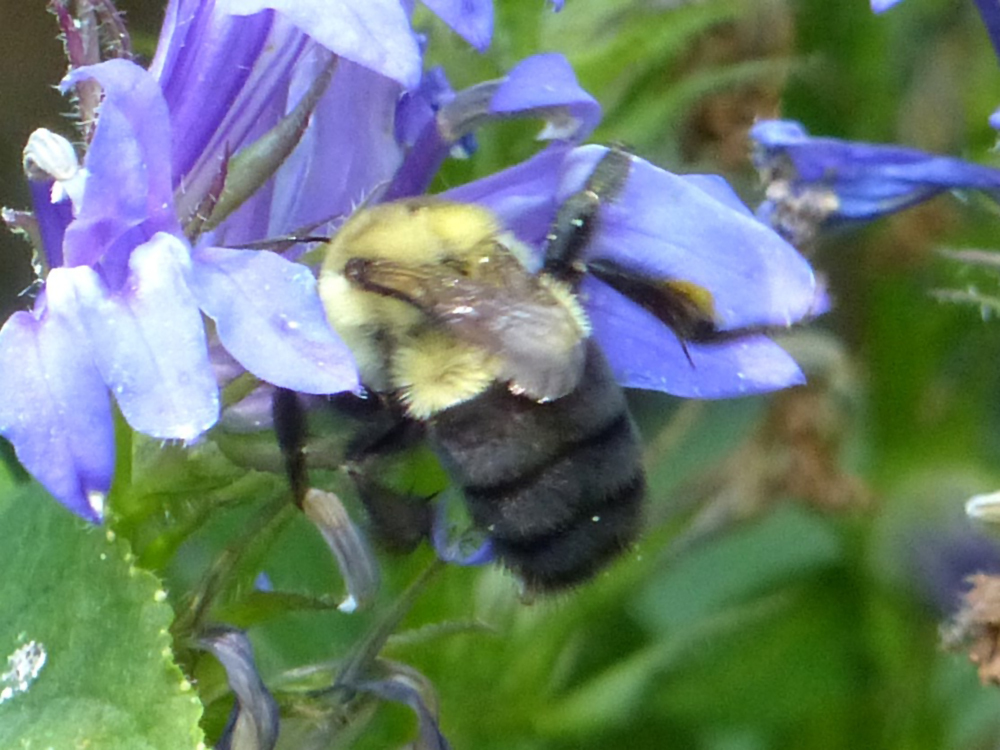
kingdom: Animalia
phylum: Arthropoda
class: Insecta
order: Hymenoptera
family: Apidae
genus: Bombus
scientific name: Bombus impatiens
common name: Common eastern bumble bee
